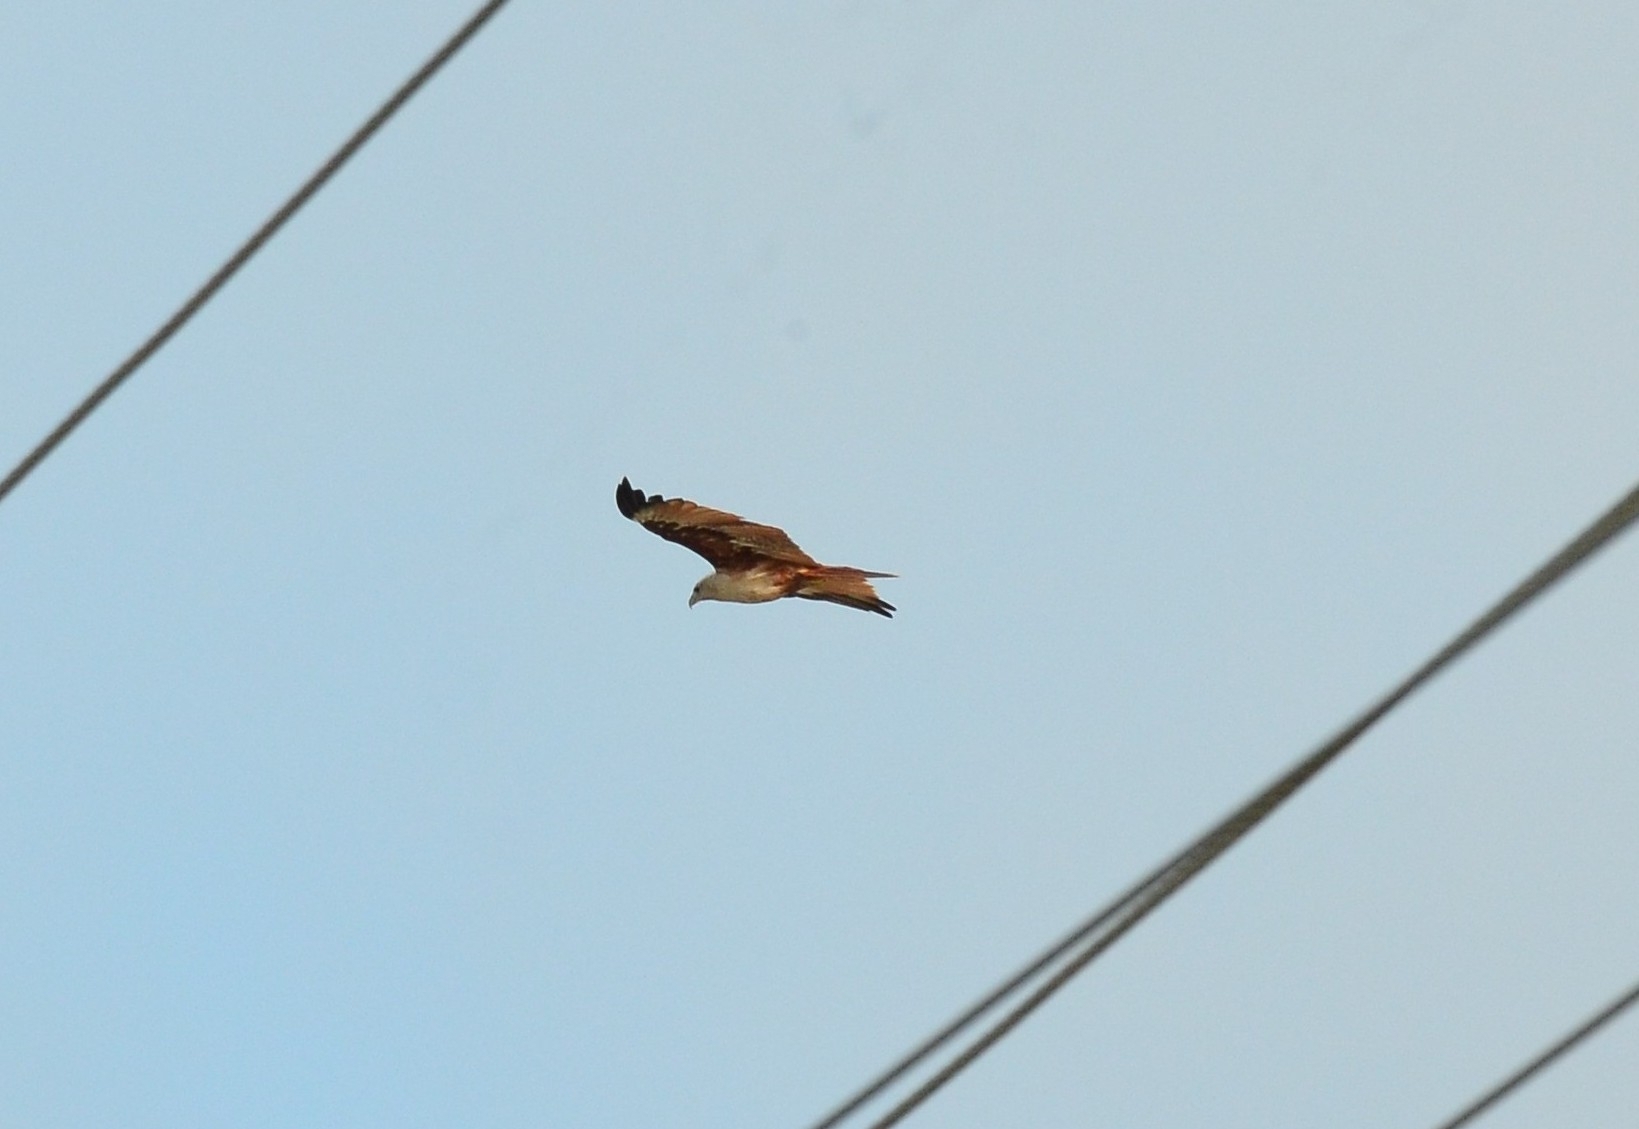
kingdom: Animalia
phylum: Chordata
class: Aves
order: Accipitriformes
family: Accipitridae
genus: Haliastur
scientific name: Haliastur indus
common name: Brahminy kite
